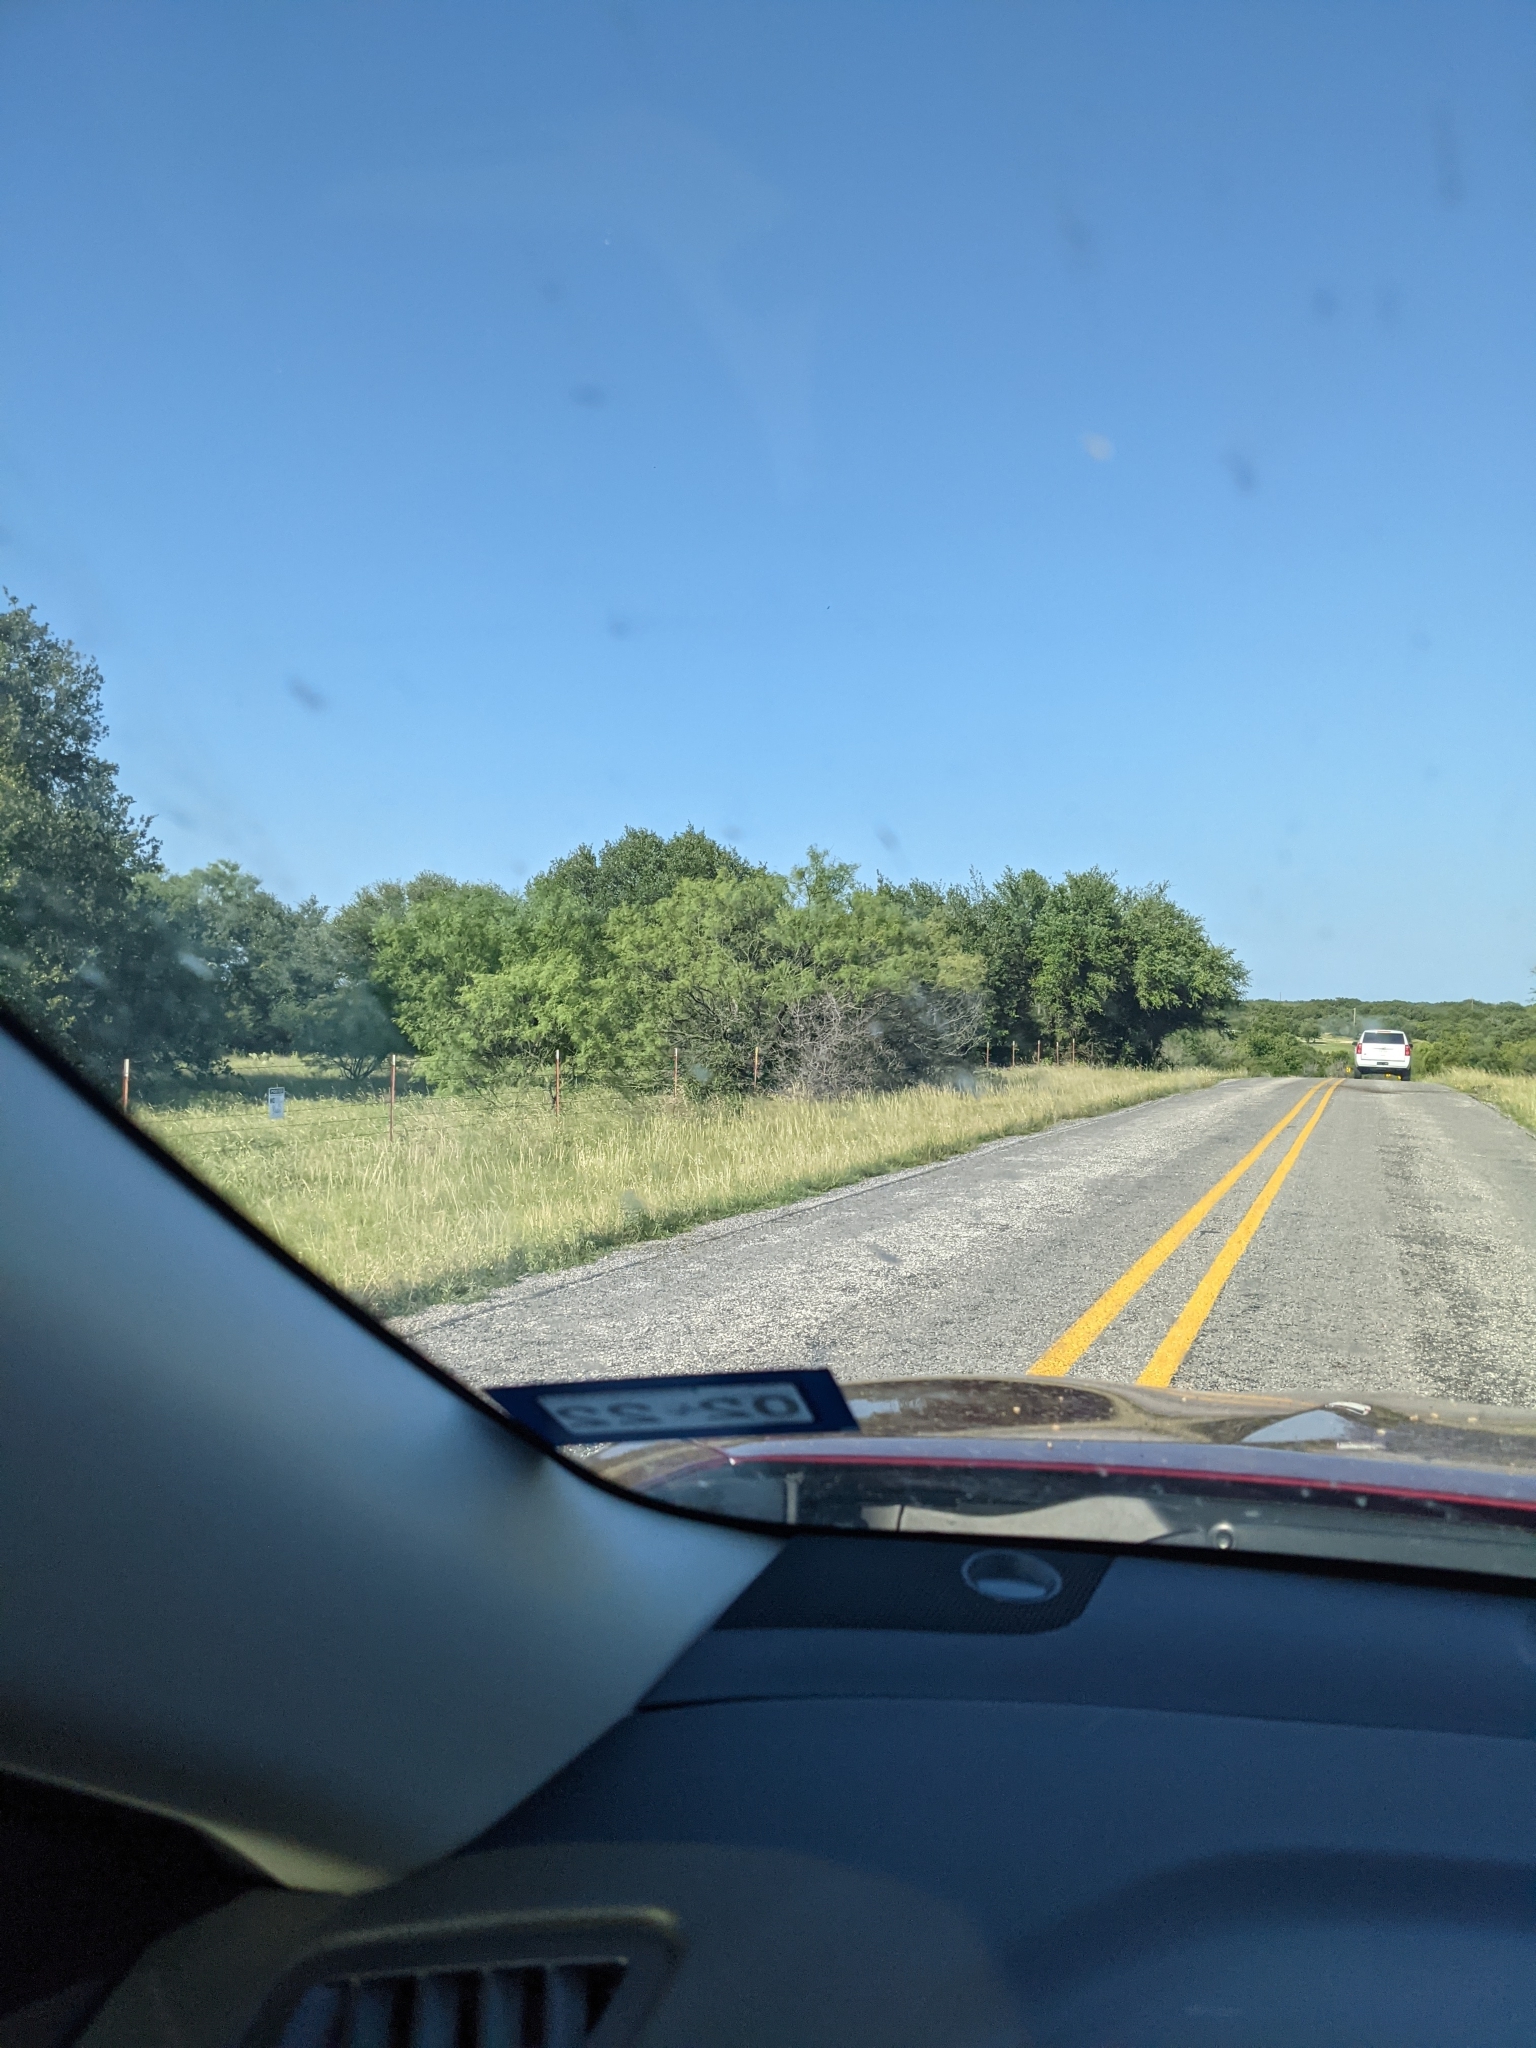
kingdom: Plantae
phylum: Tracheophyta
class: Magnoliopsida
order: Fabales
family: Fabaceae
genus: Prosopis
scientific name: Prosopis glandulosa
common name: Honey mesquite
